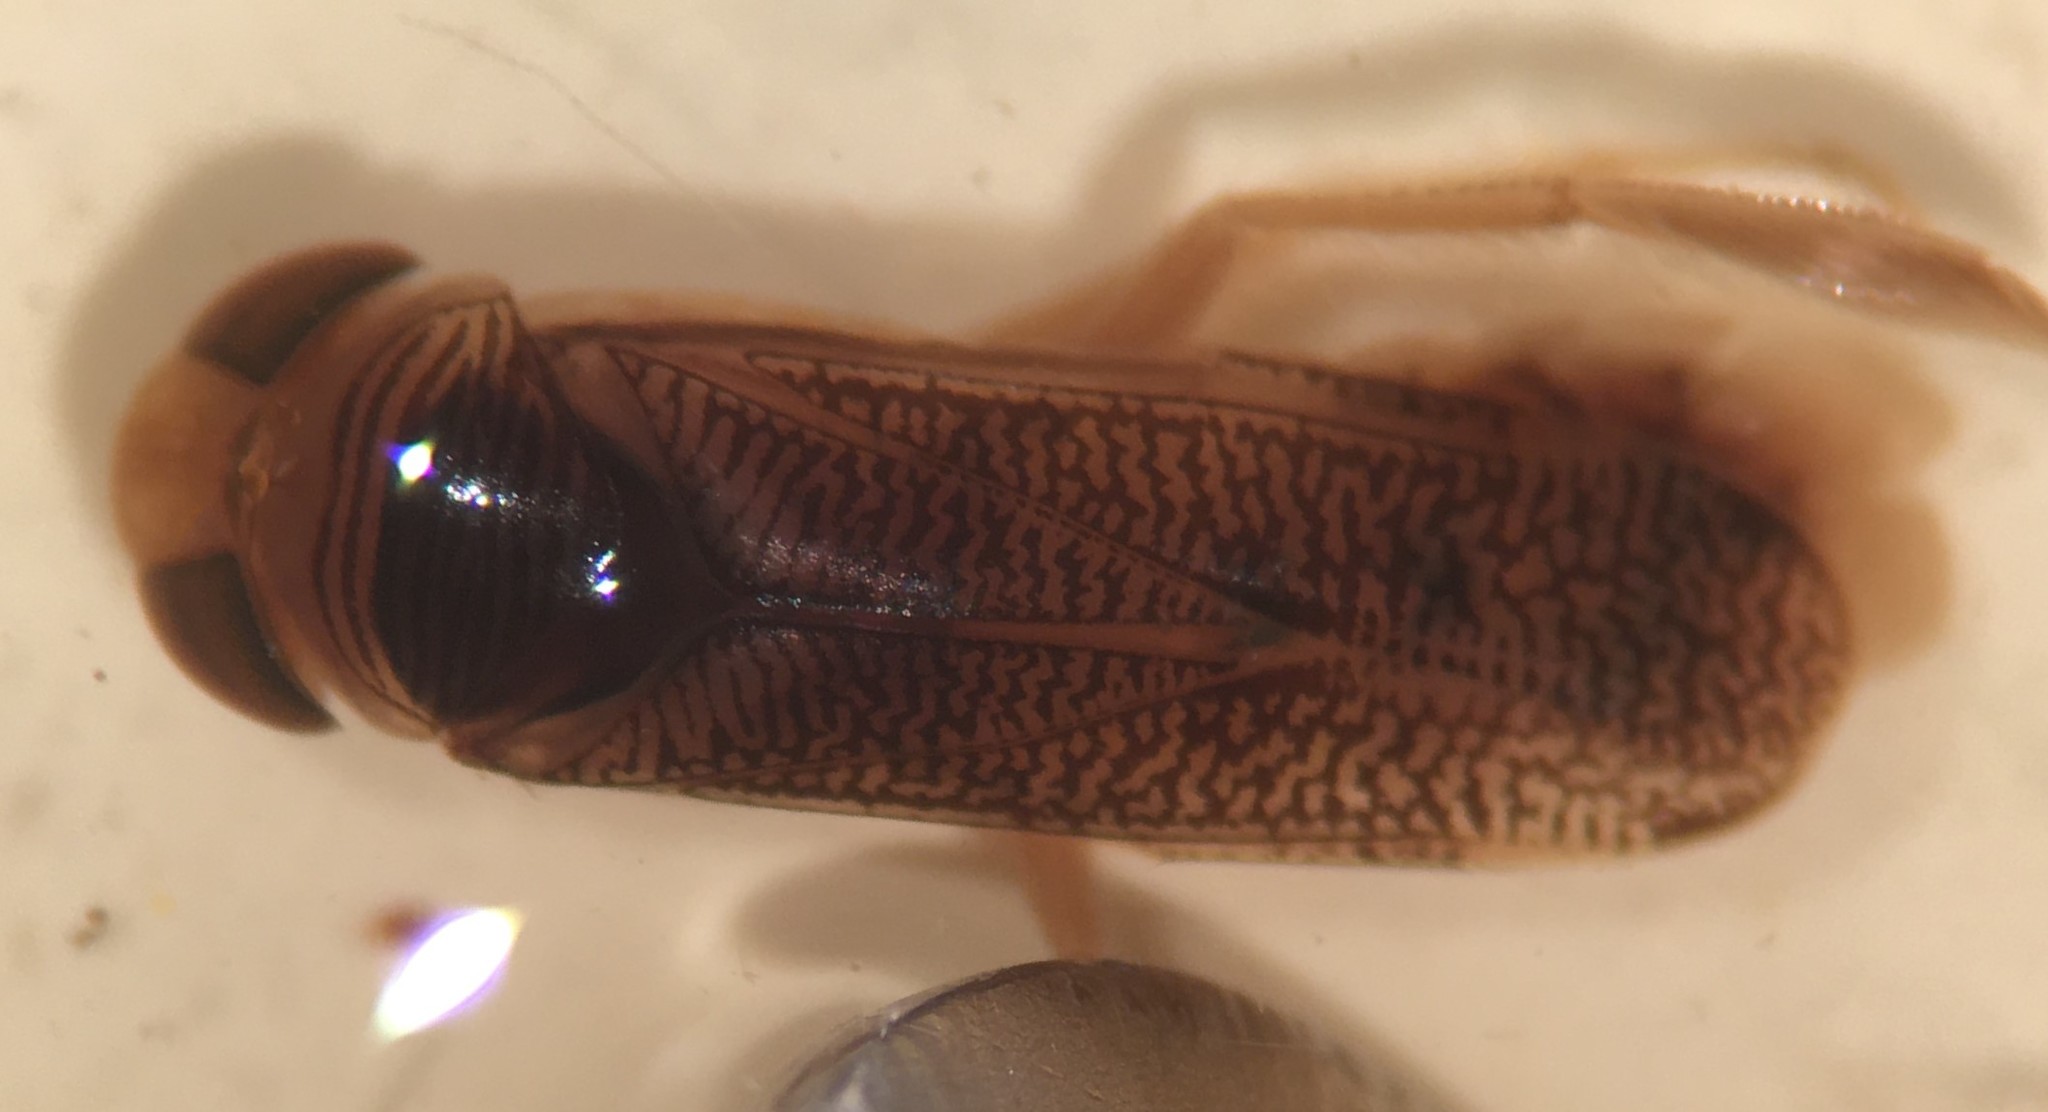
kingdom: Animalia
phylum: Arthropoda
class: Insecta
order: Hemiptera
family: Corixidae
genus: Trichocorixa
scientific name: Trichocorixa kanza
